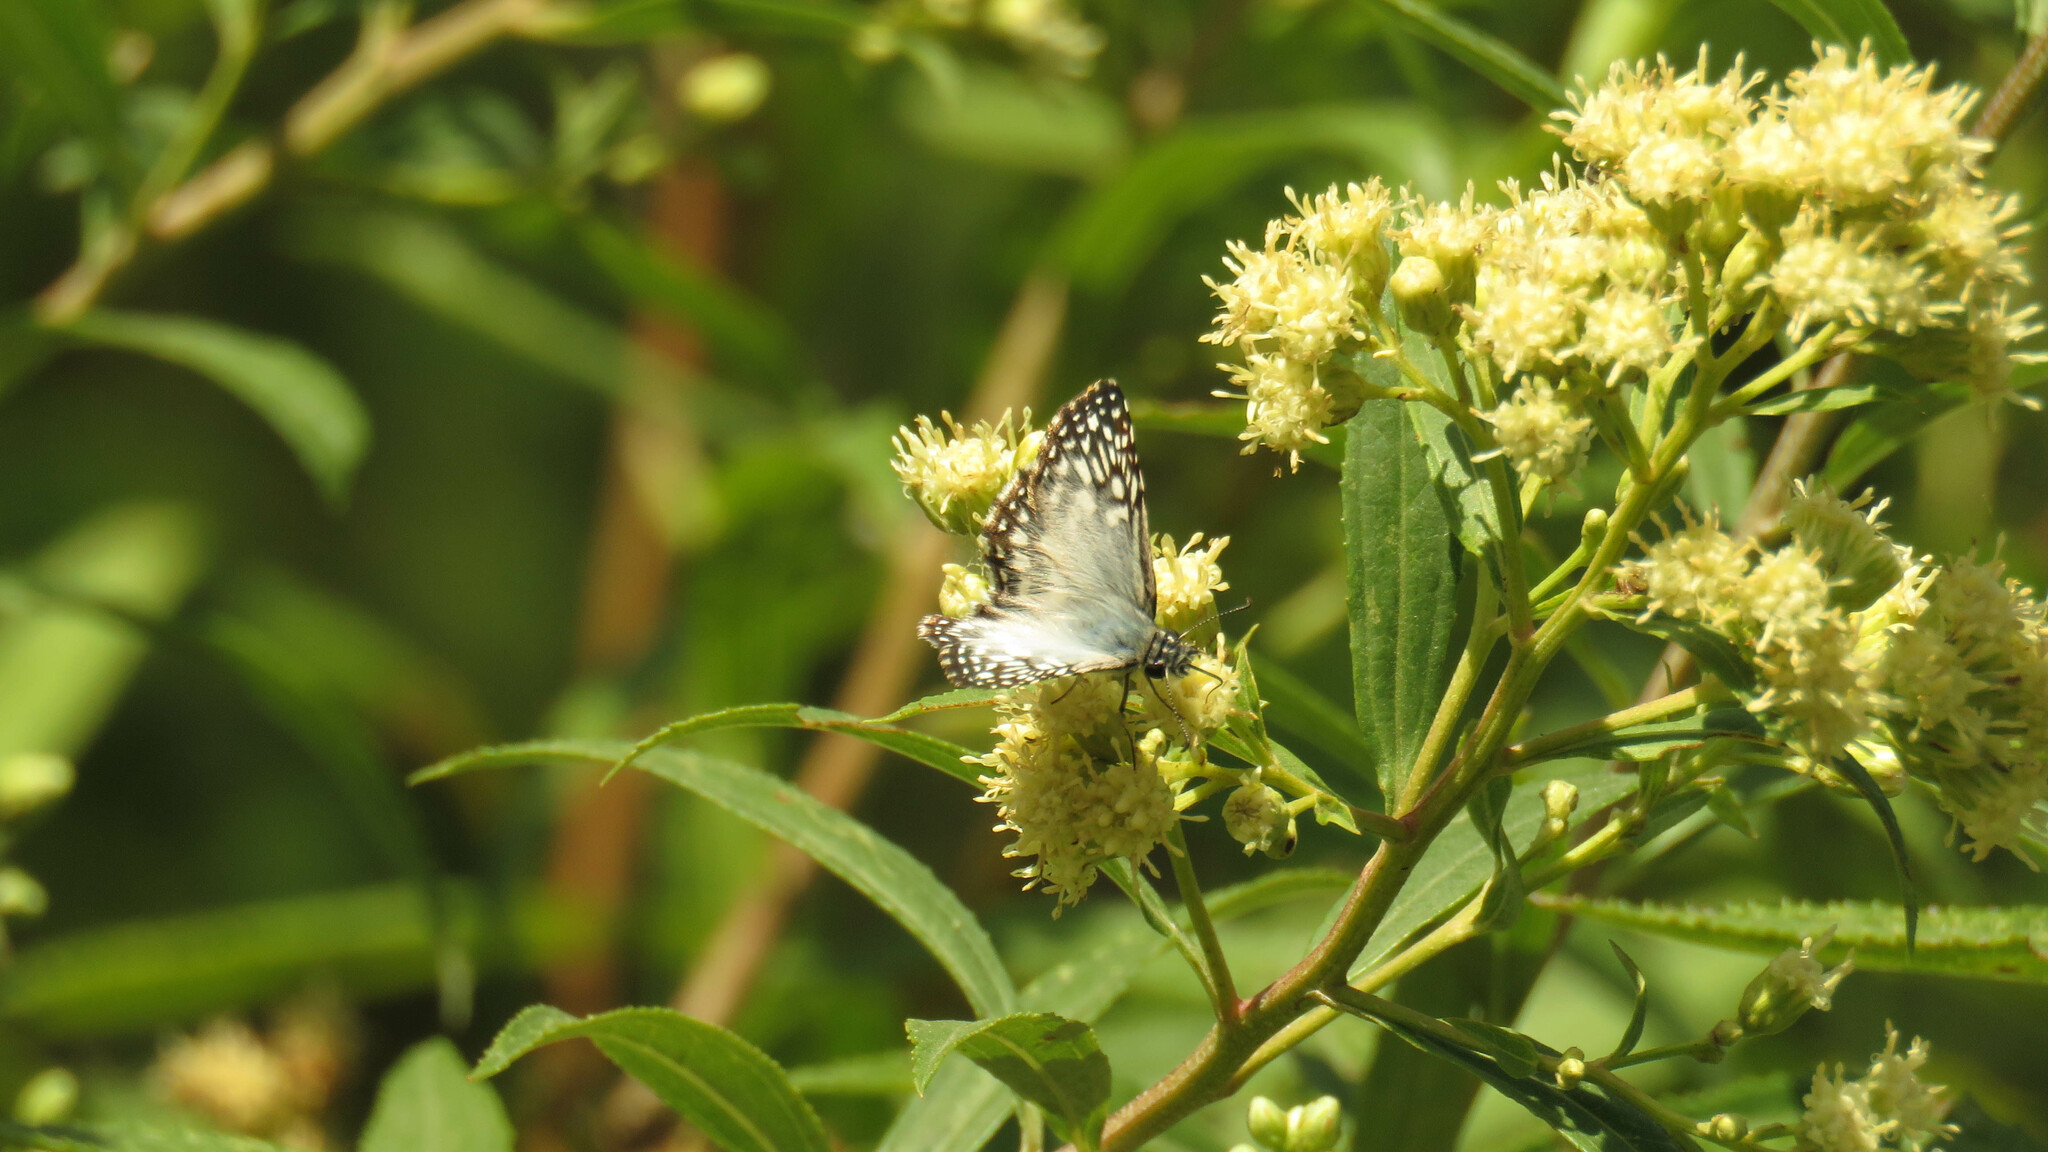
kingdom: Animalia
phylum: Arthropoda
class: Insecta
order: Lepidoptera
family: Hesperiidae
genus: Pyrgus
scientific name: Pyrgus oileus
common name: Tropical checkered-skipper
